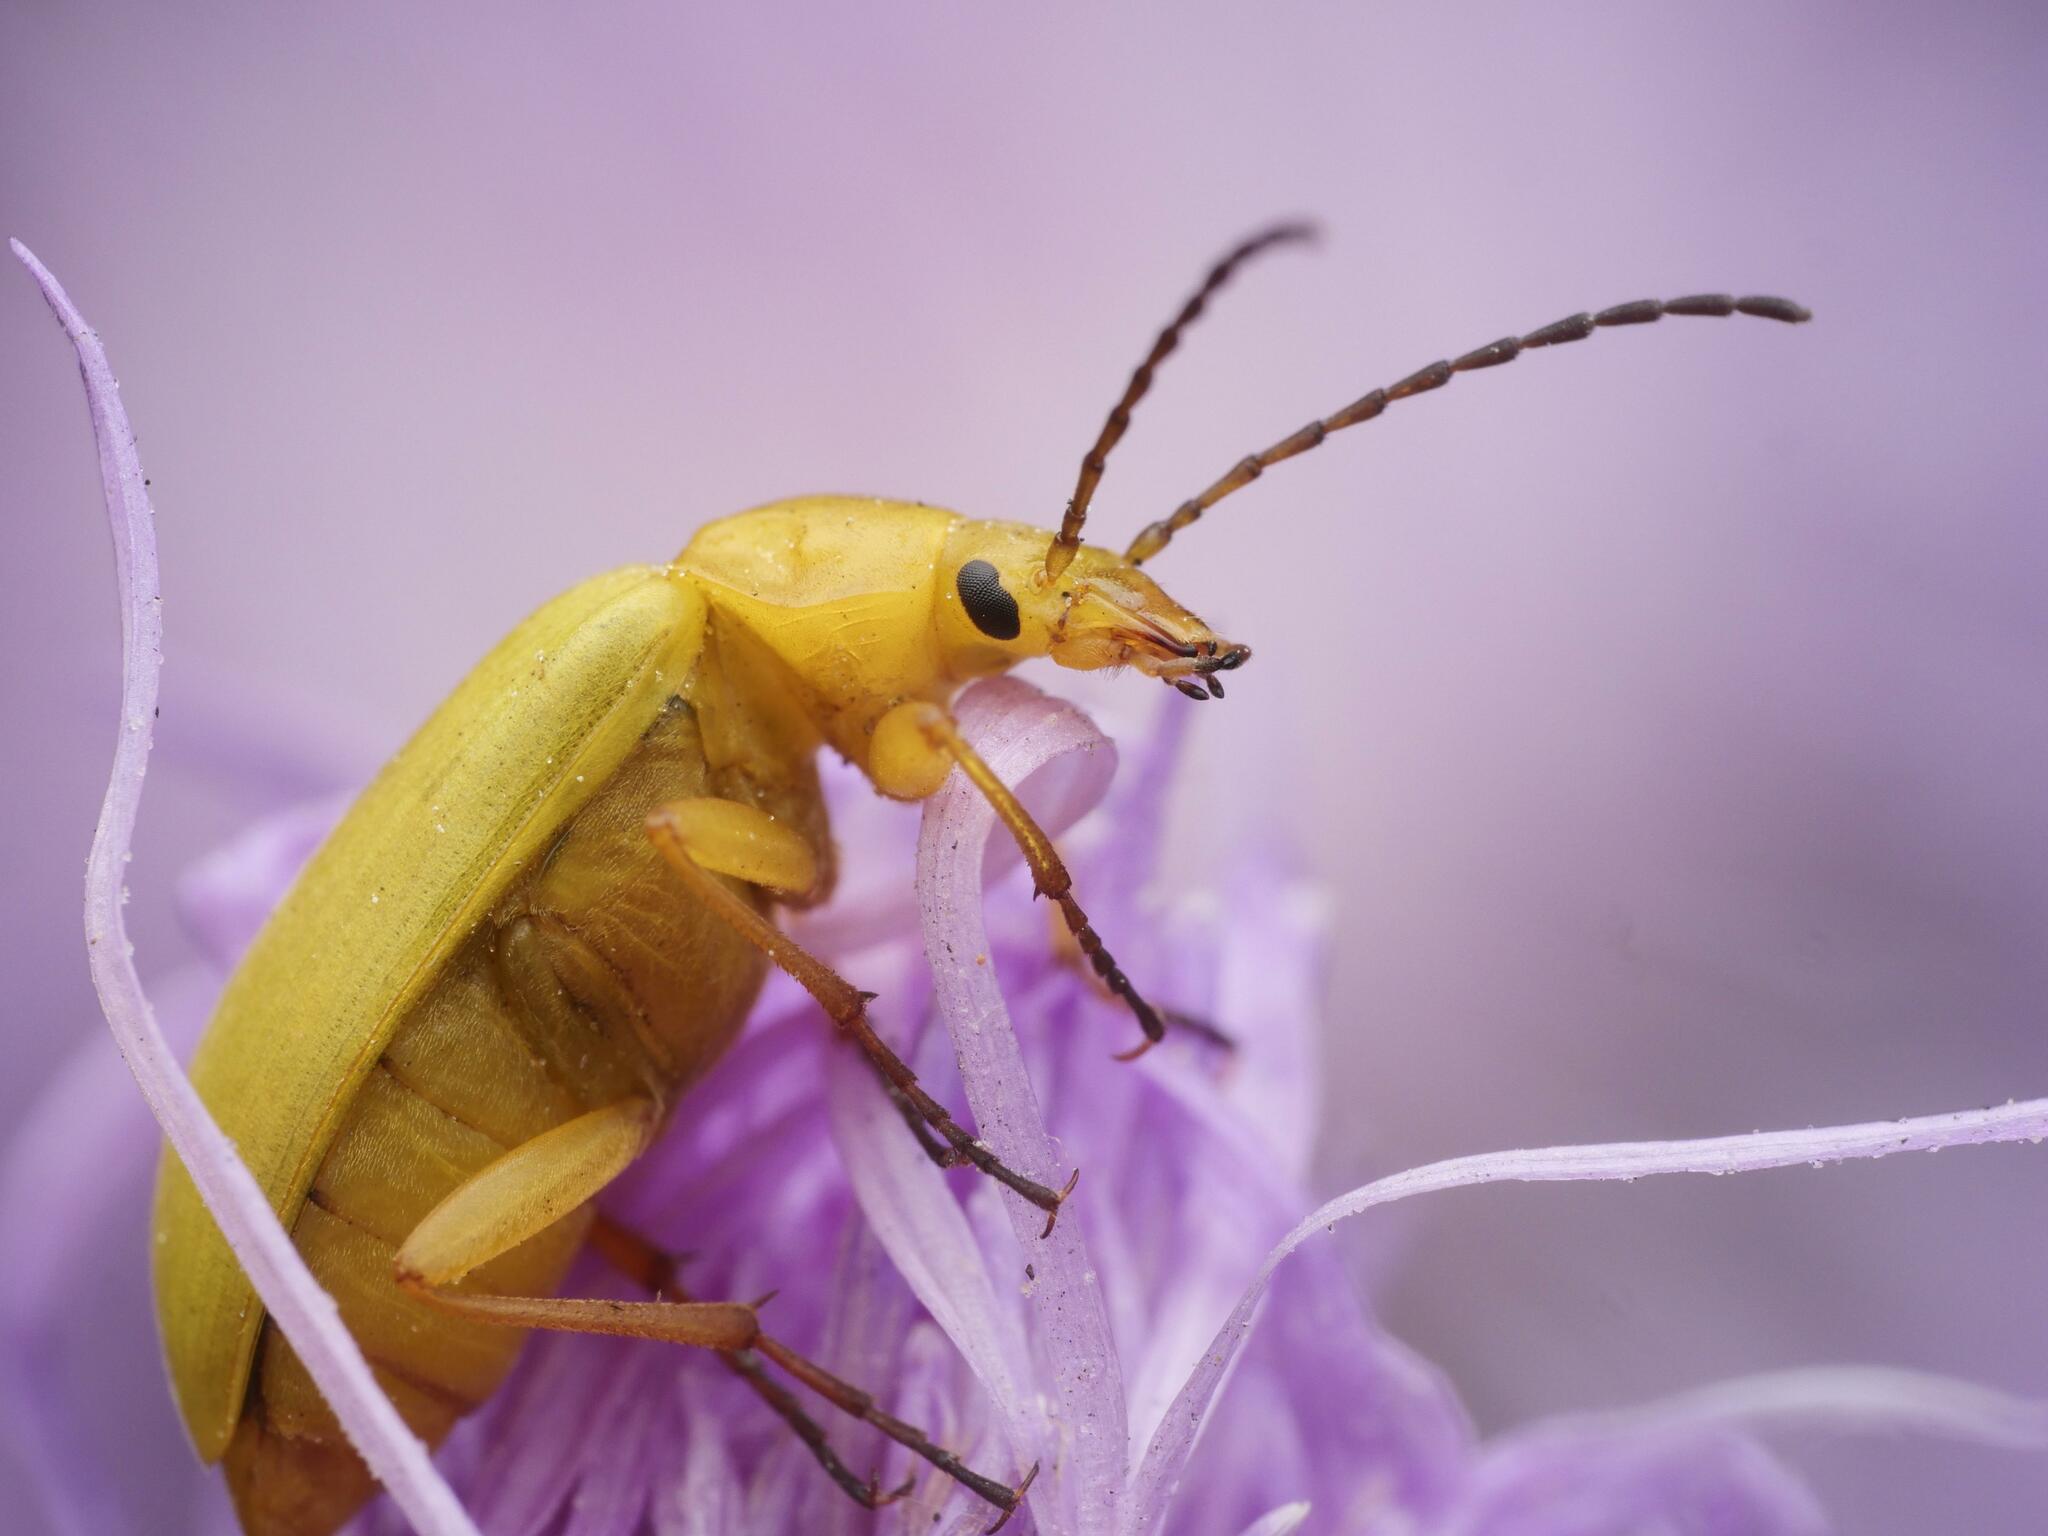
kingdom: Animalia
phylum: Arthropoda
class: Insecta
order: Coleoptera
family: Tenebrionidae
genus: Cteniopus
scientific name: Cteniopus sulphureus
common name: Sulphur beetle
